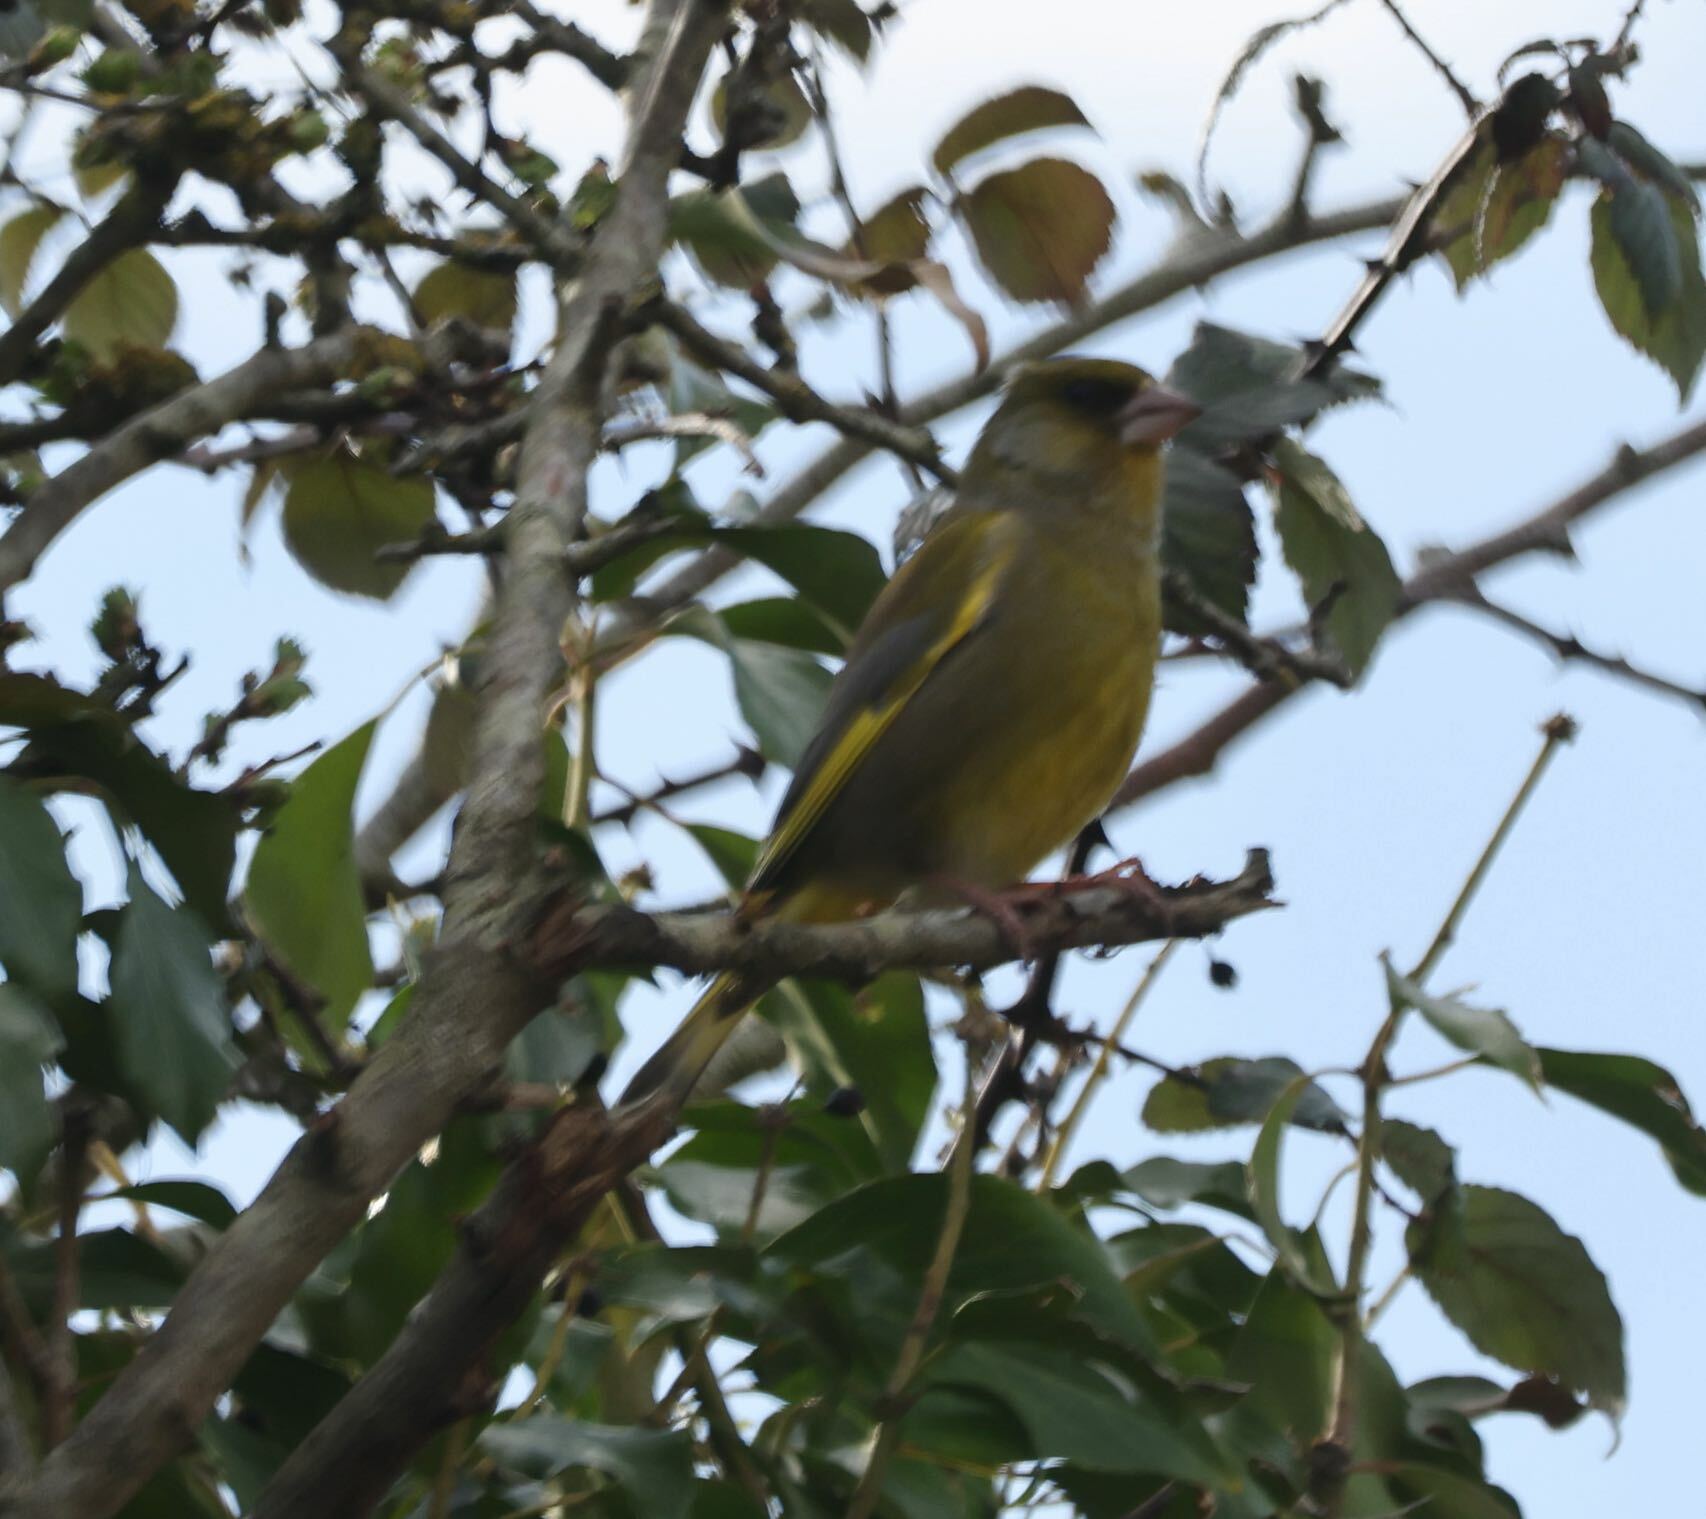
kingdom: Plantae
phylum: Tracheophyta
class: Liliopsida
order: Poales
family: Poaceae
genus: Chloris
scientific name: Chloris chloris
